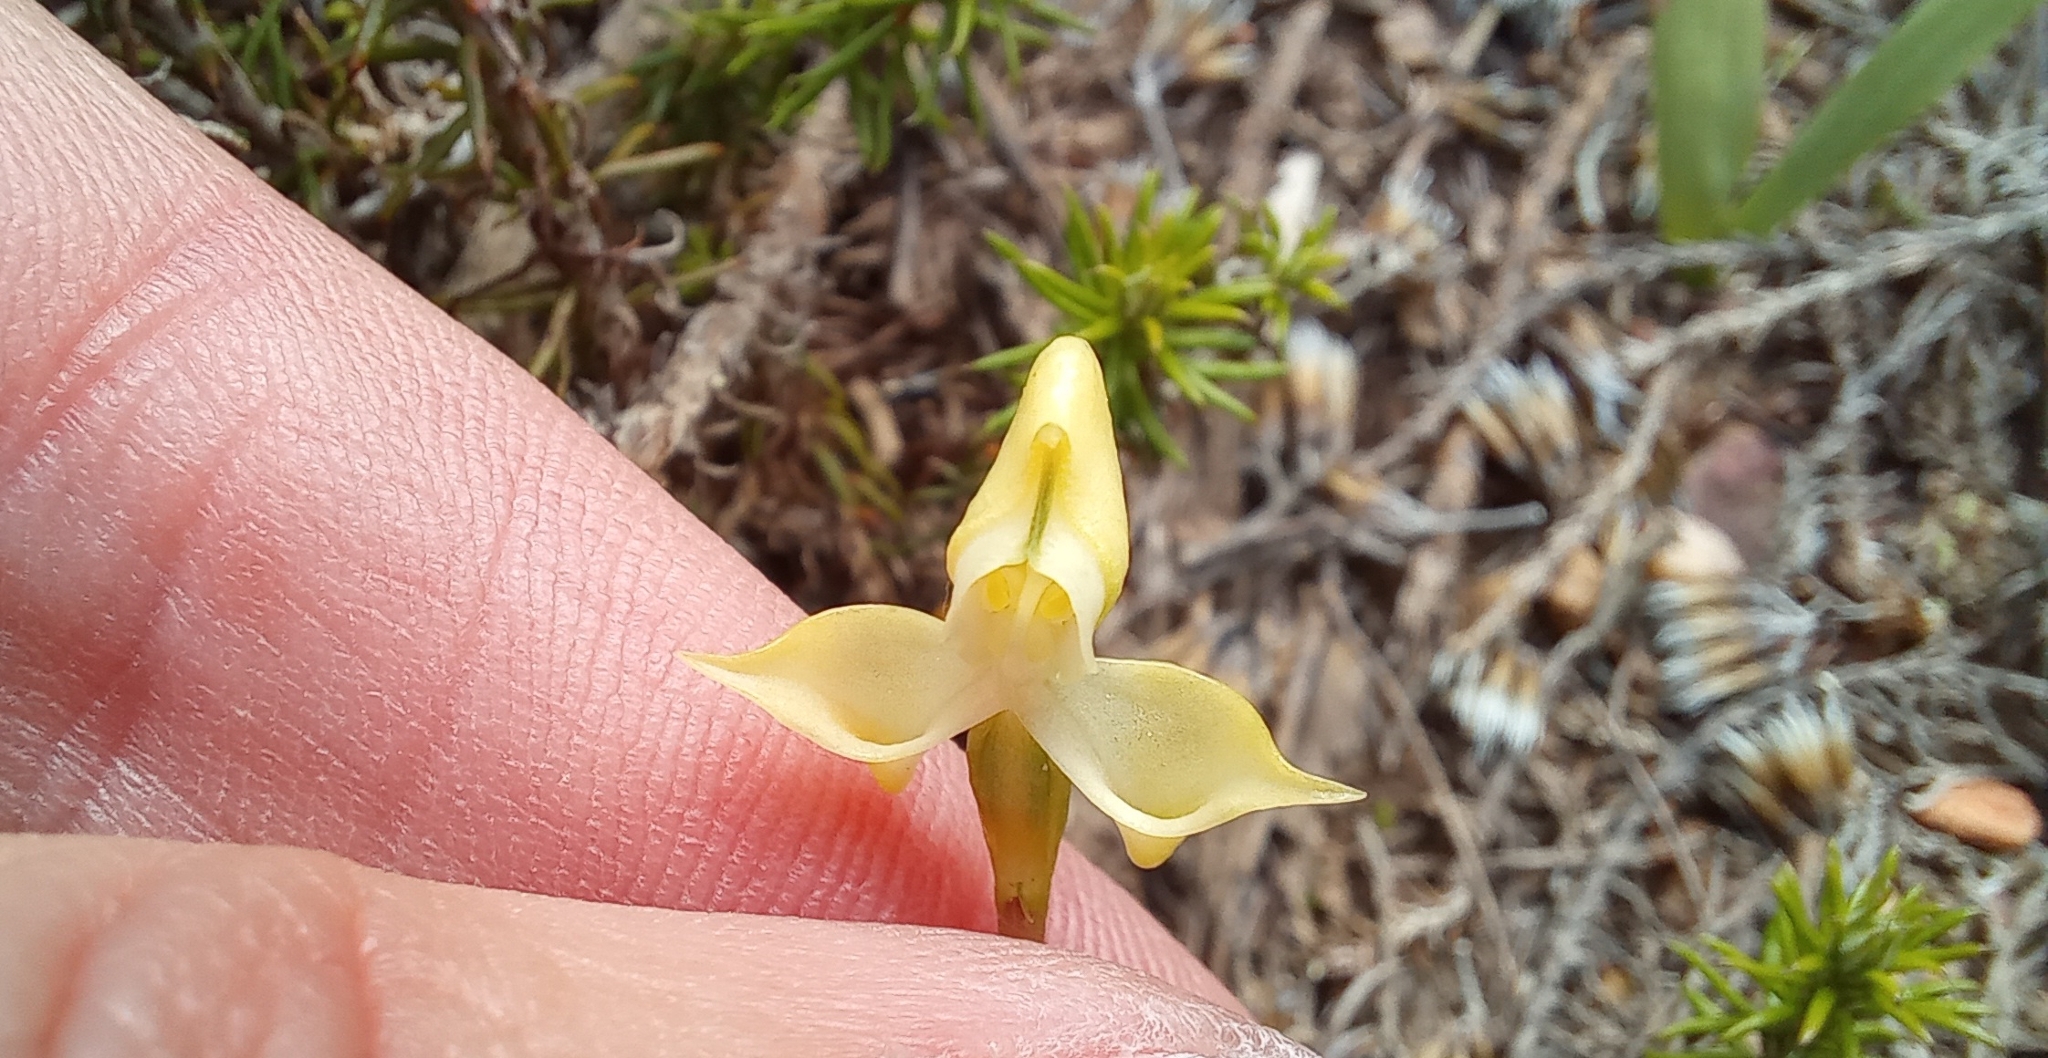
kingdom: Plantae
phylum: Tracheophyta
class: Liliopsida
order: Asparagales
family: Orchidaceae
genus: Disperis
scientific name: Disperis bolusiana
